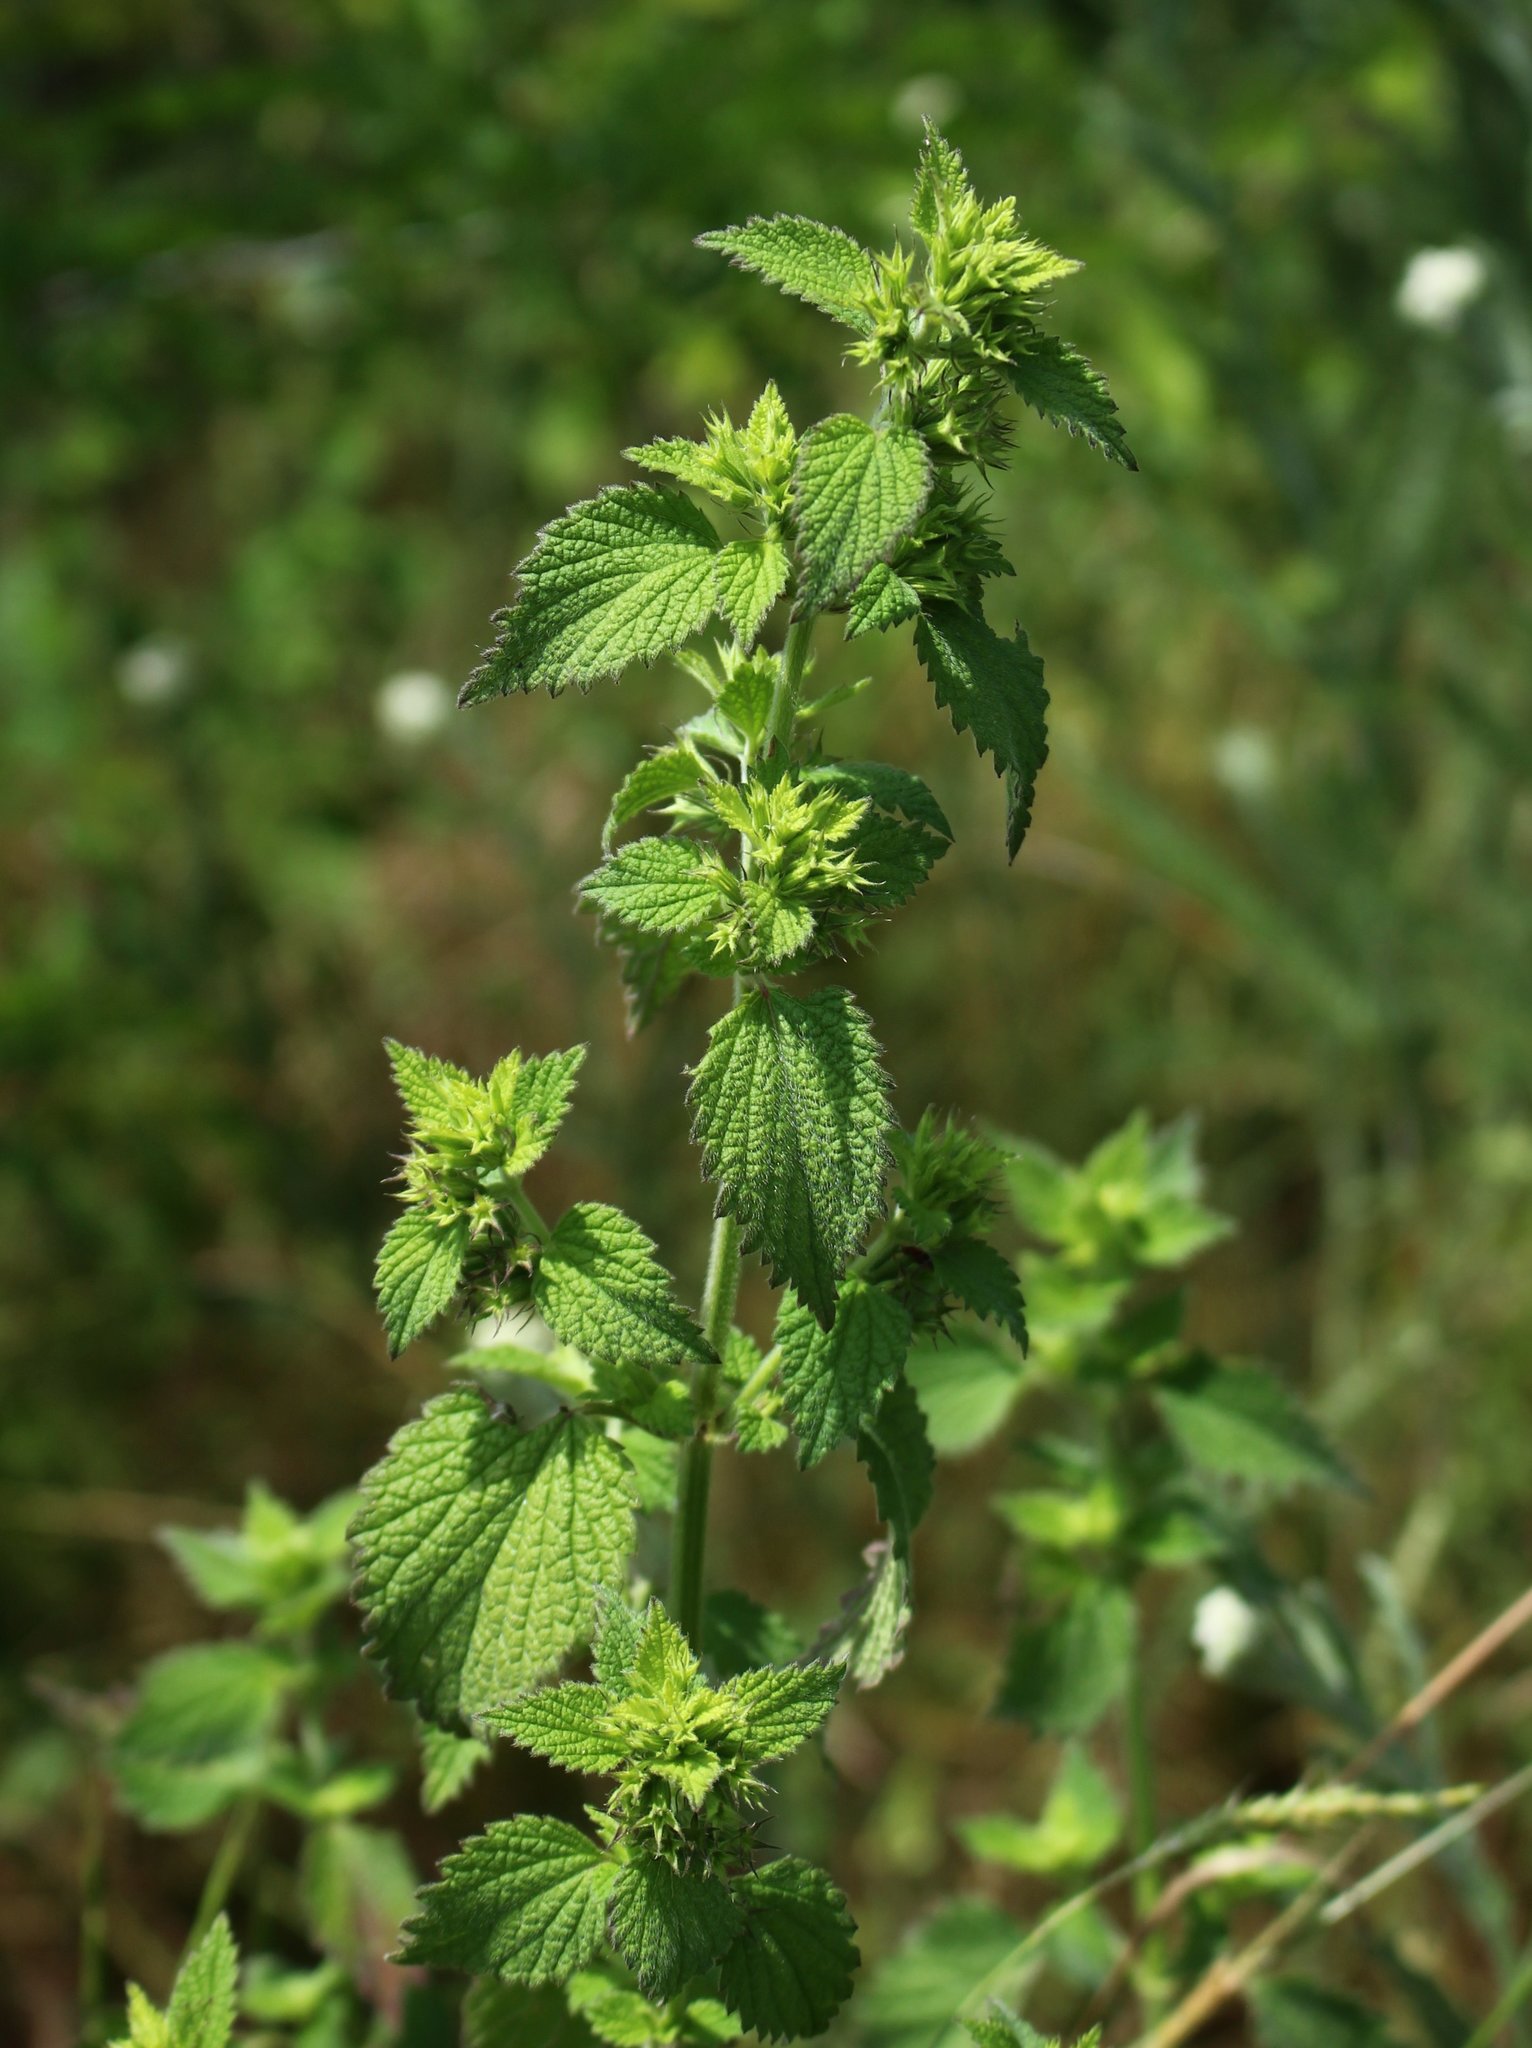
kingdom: Plantae
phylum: Tracheophyta
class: Magnoliopsida
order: Lamiales
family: Lamiaceae
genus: Ballota
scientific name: Ballota nigra
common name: Black horehound
